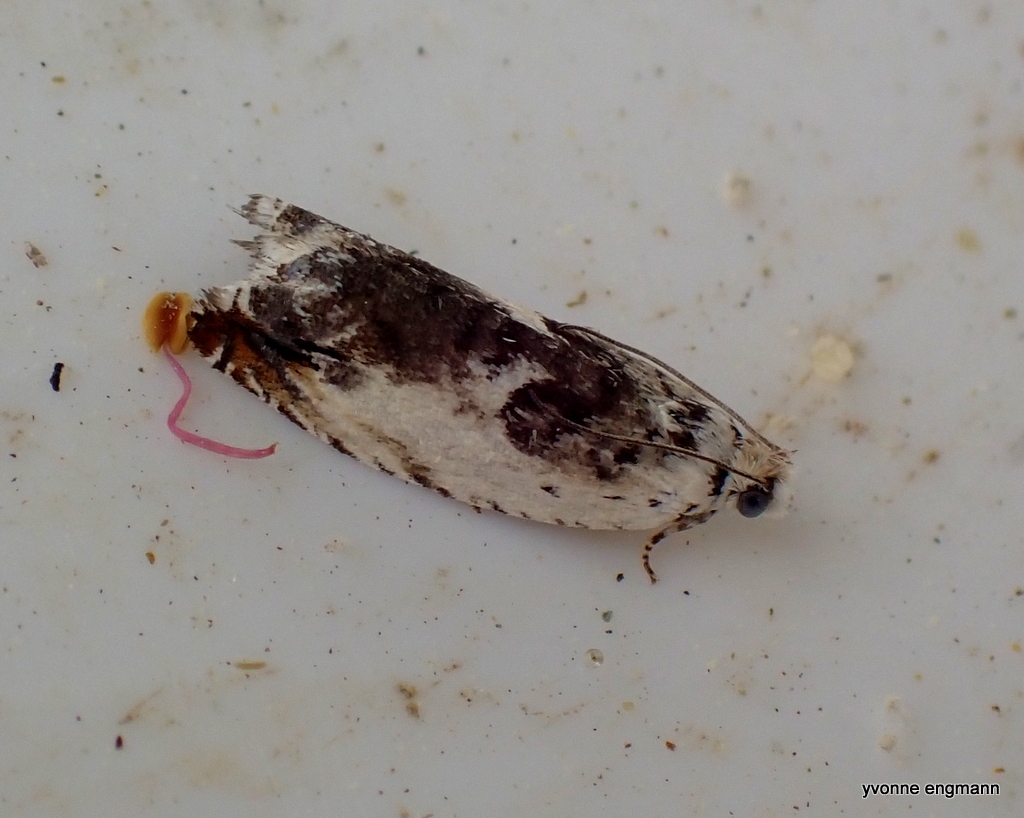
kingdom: Animalia
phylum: Arthropoda
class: Insecta
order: Lepidoptera
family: Tortricidae
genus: Ancylis
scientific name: Ancylis laetana
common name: Aspen roller
